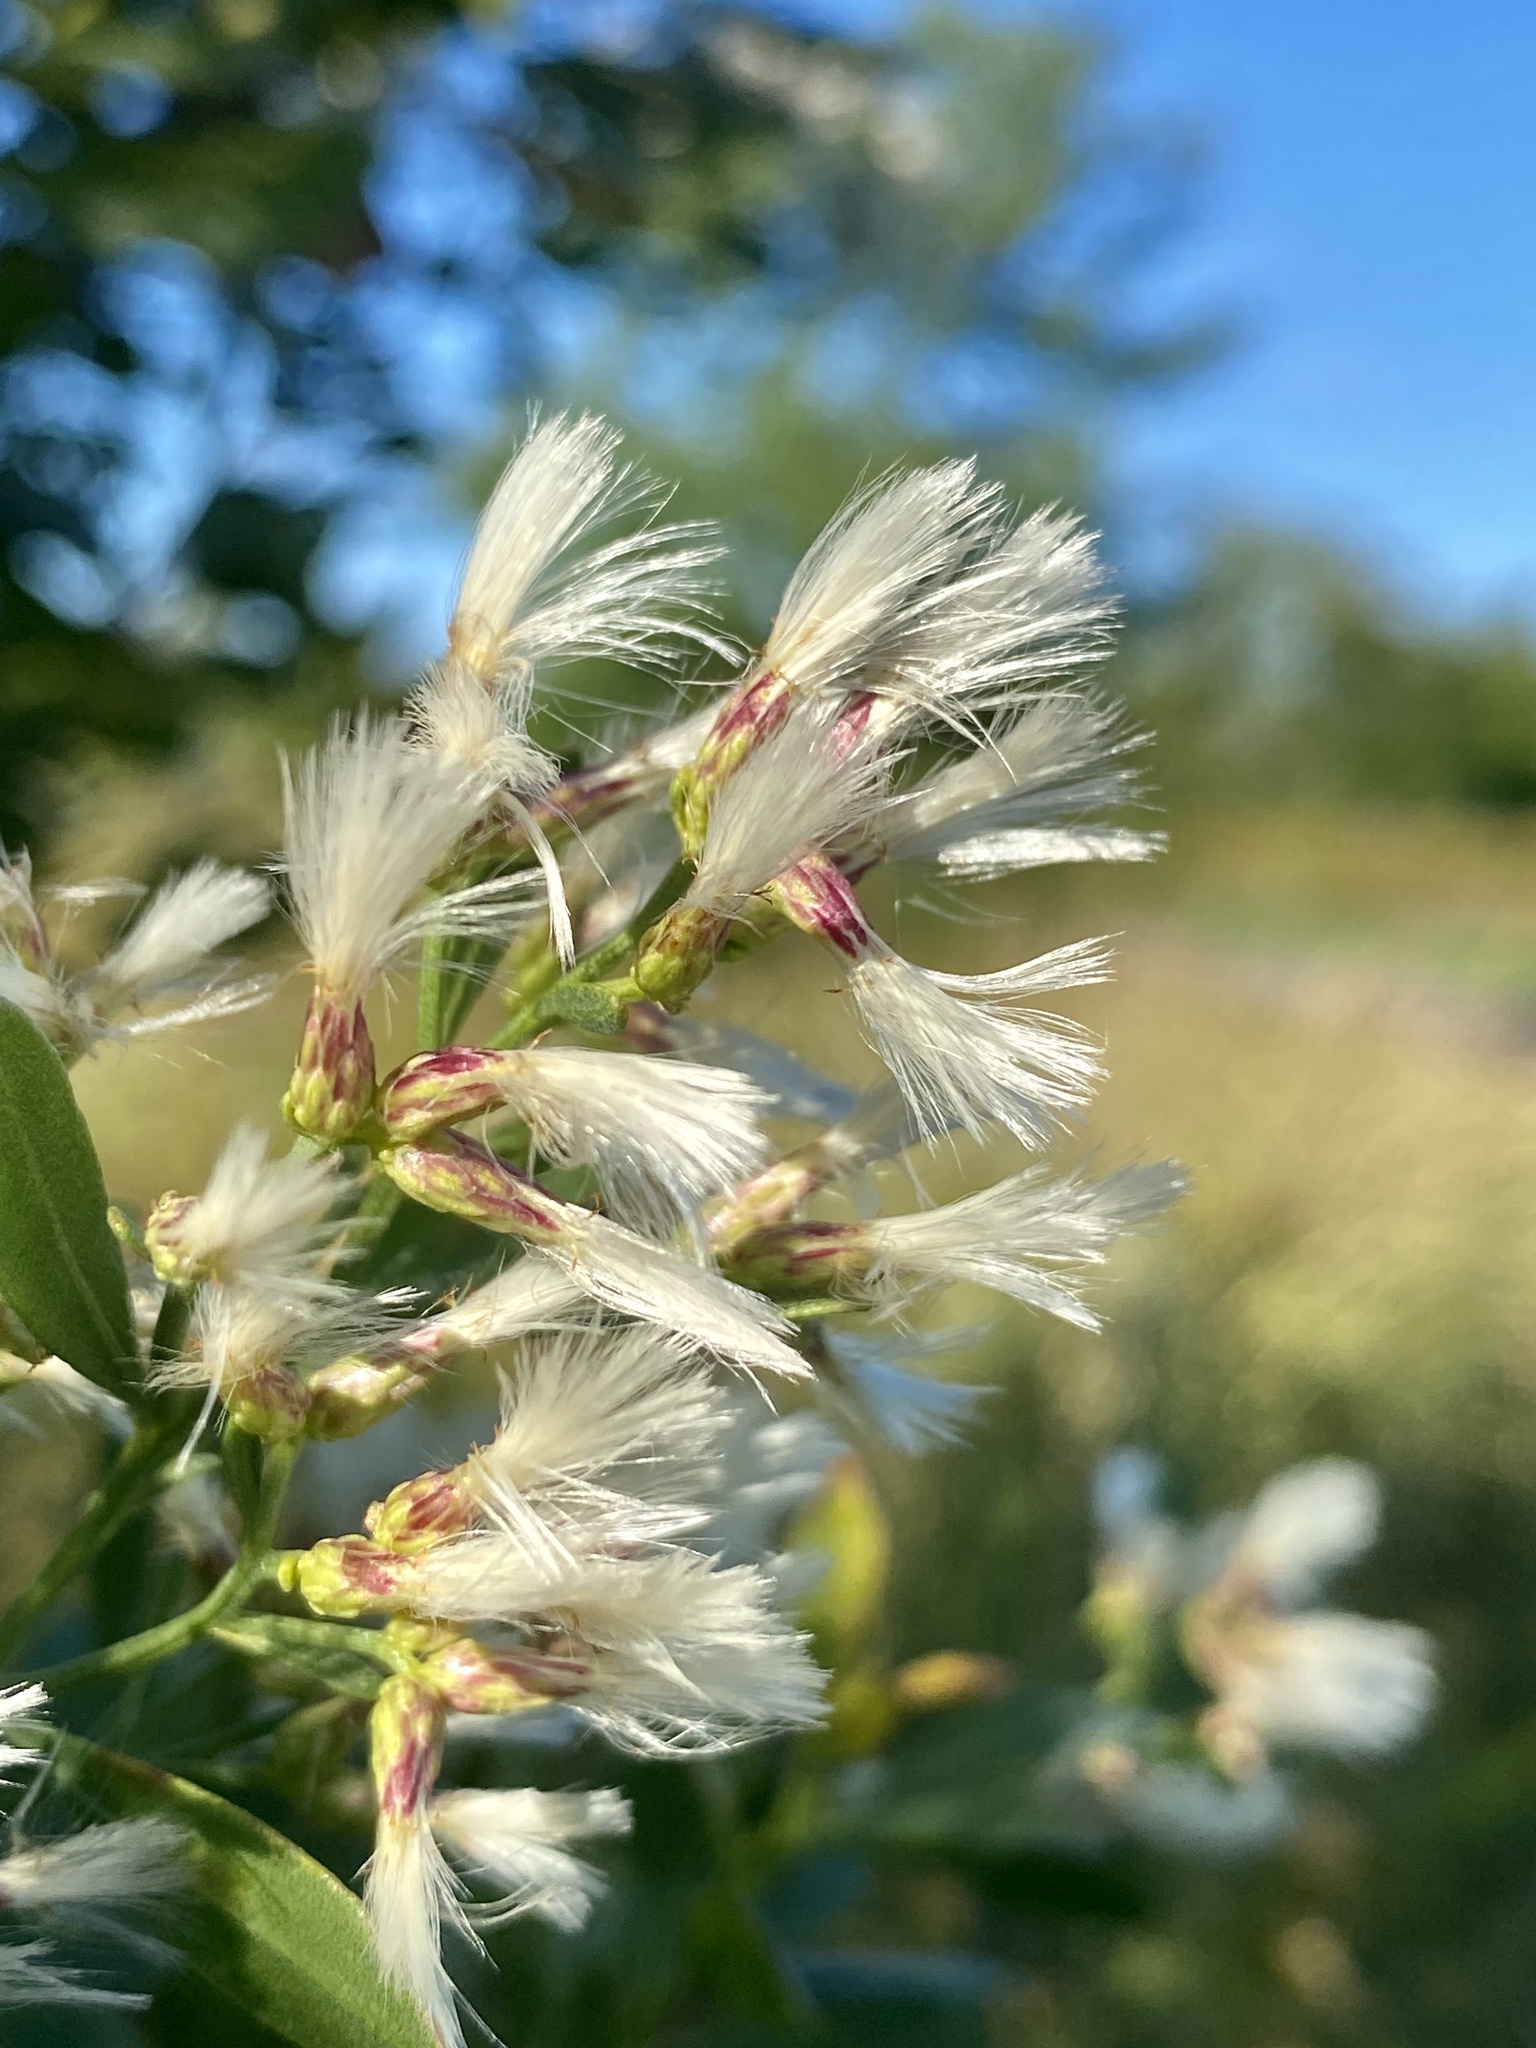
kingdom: Plantae
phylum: Tracheophyta
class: Magnoliopsida
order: Asterales
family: Asteraceae
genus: Baccharis
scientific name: Baccharis halimifolia
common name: Eastern baccharis
